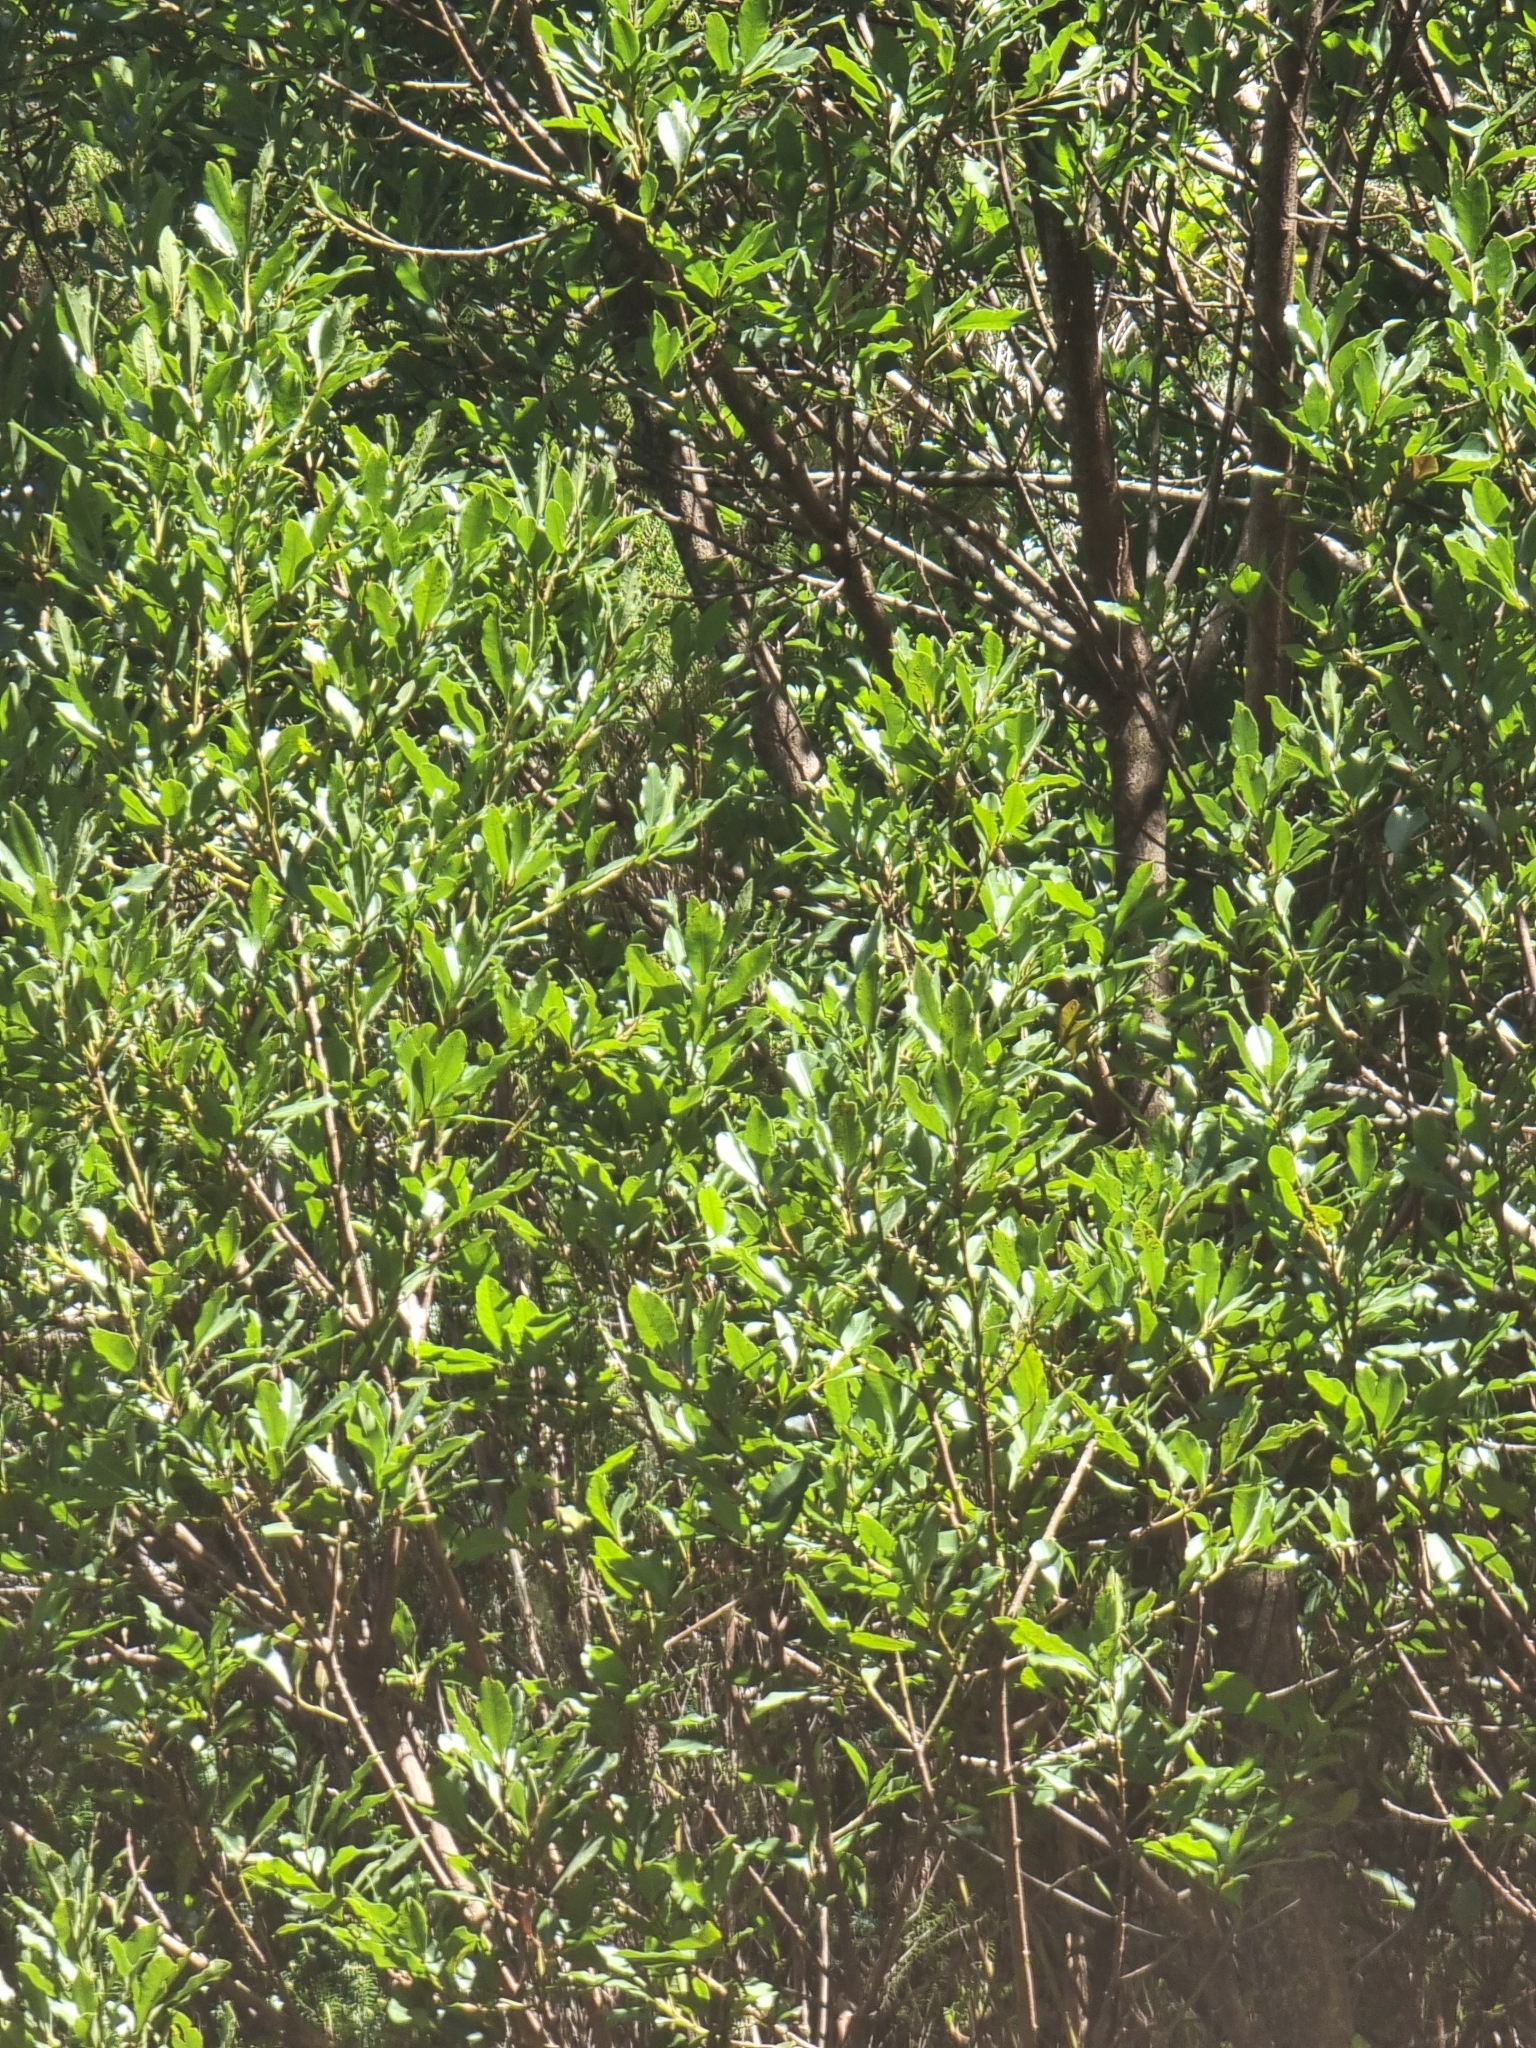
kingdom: Plantae
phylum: Tracheophyta
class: Magnoliopsida
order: Fagales
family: Myricaceae
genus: Morella
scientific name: Morella faya
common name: Firetree
